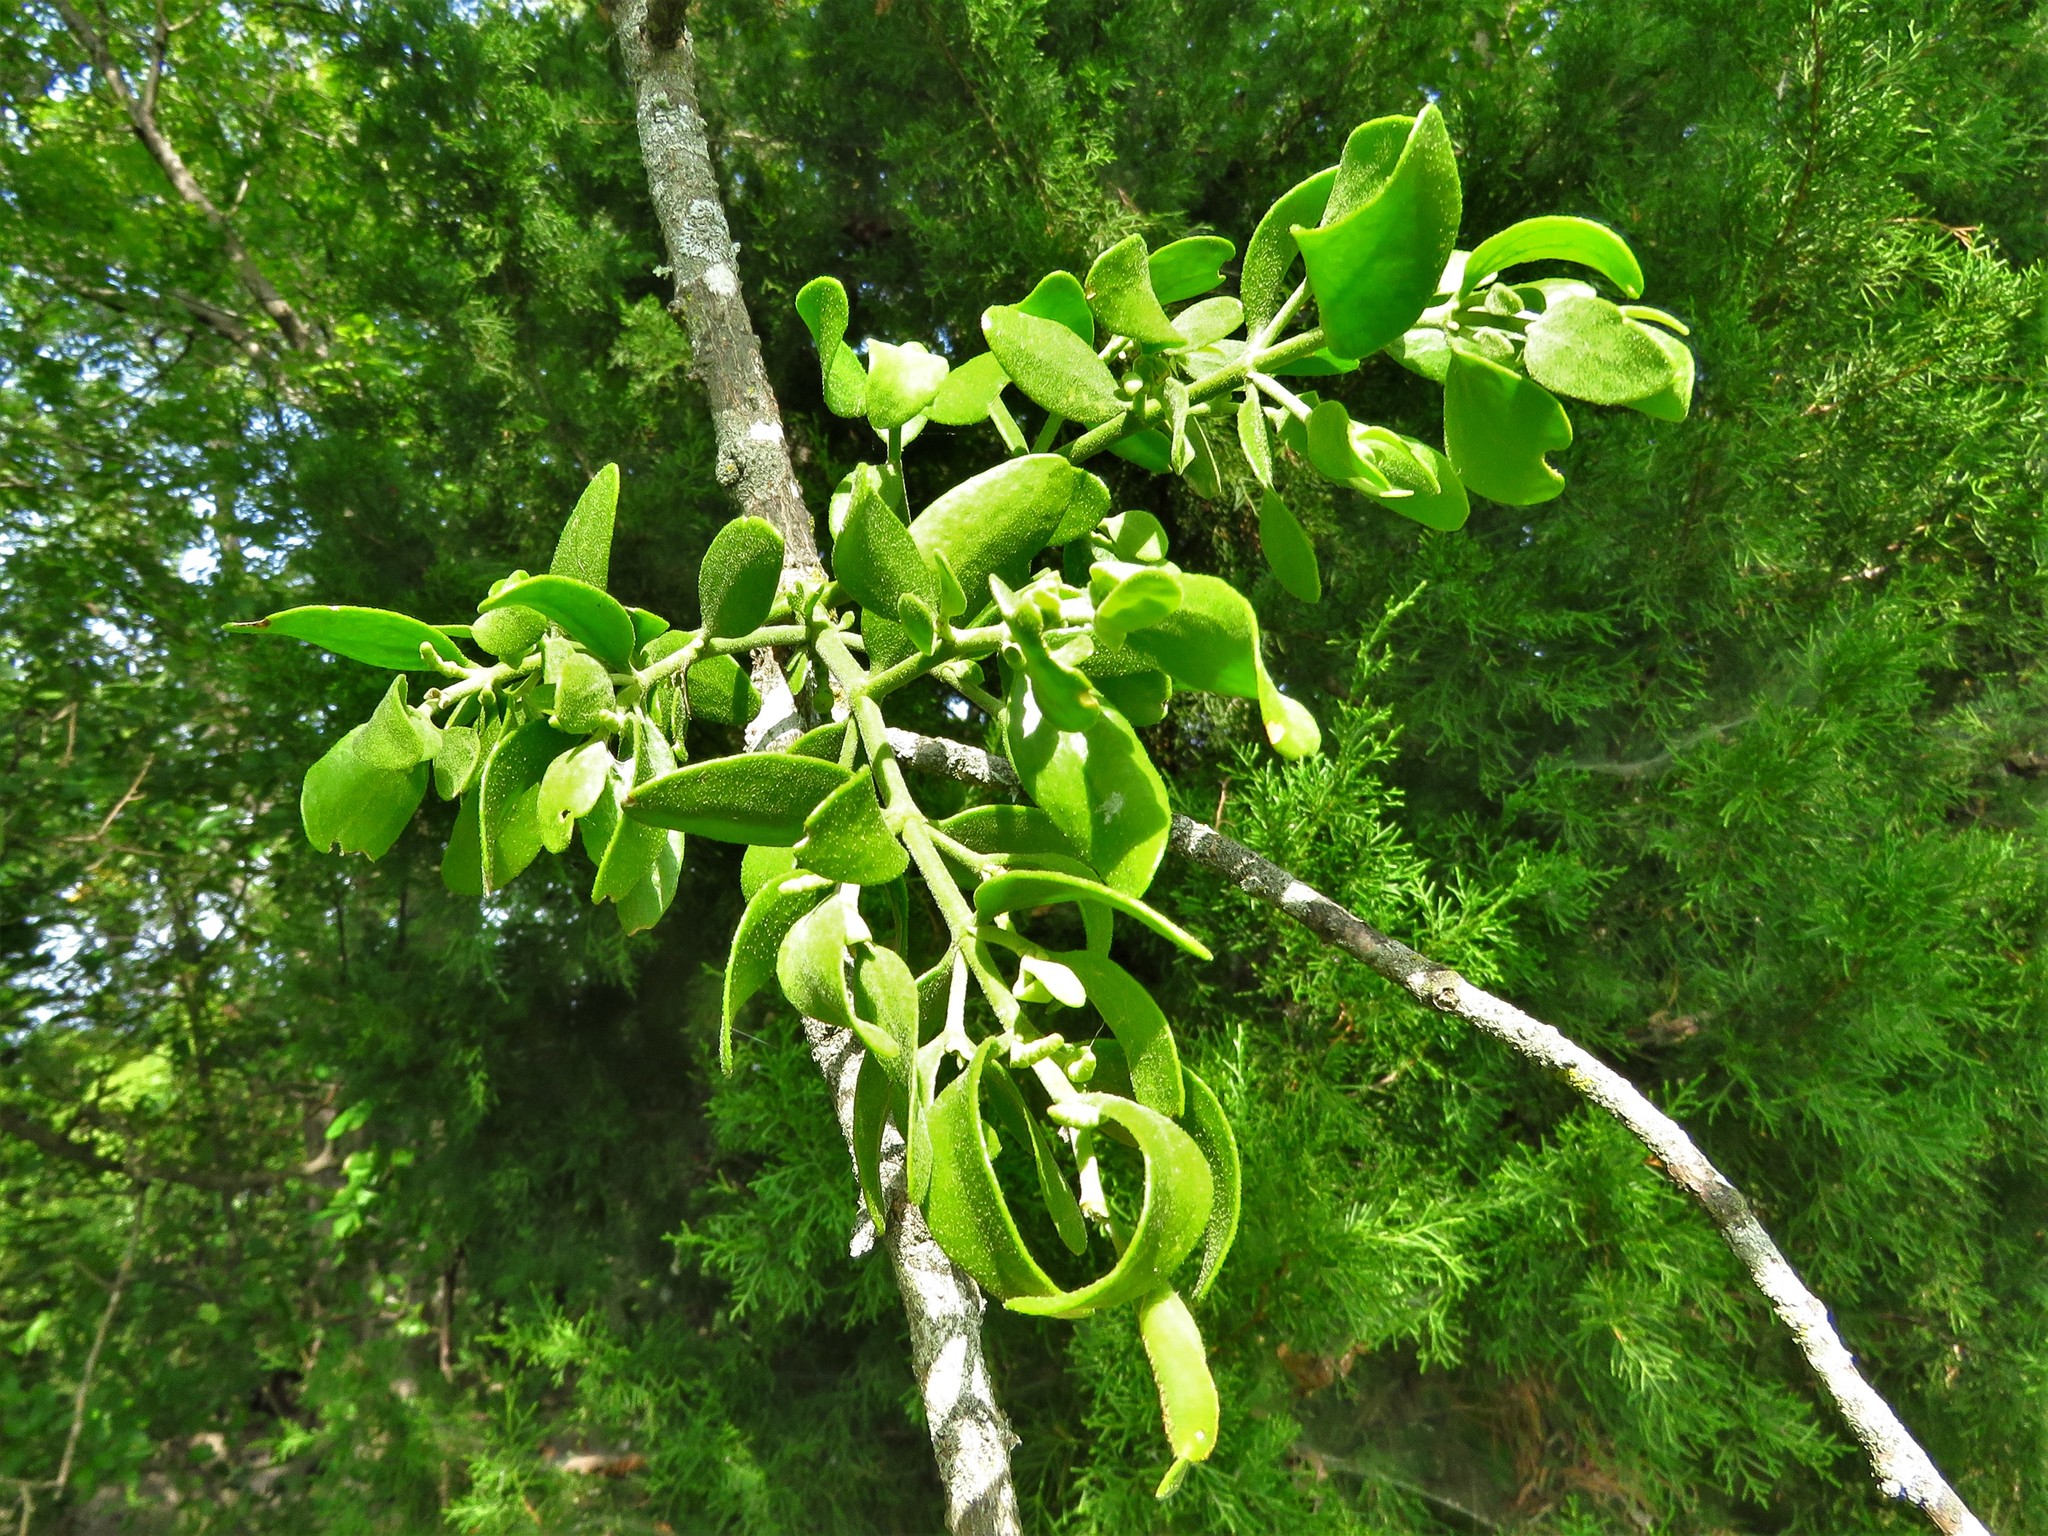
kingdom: Plantae
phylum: Tracheophyta
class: Magnoliopsida
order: Santalales
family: Viscaceae
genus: Phoradendron
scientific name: Phoradendron leucarpum
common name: Pacific mistletoe
